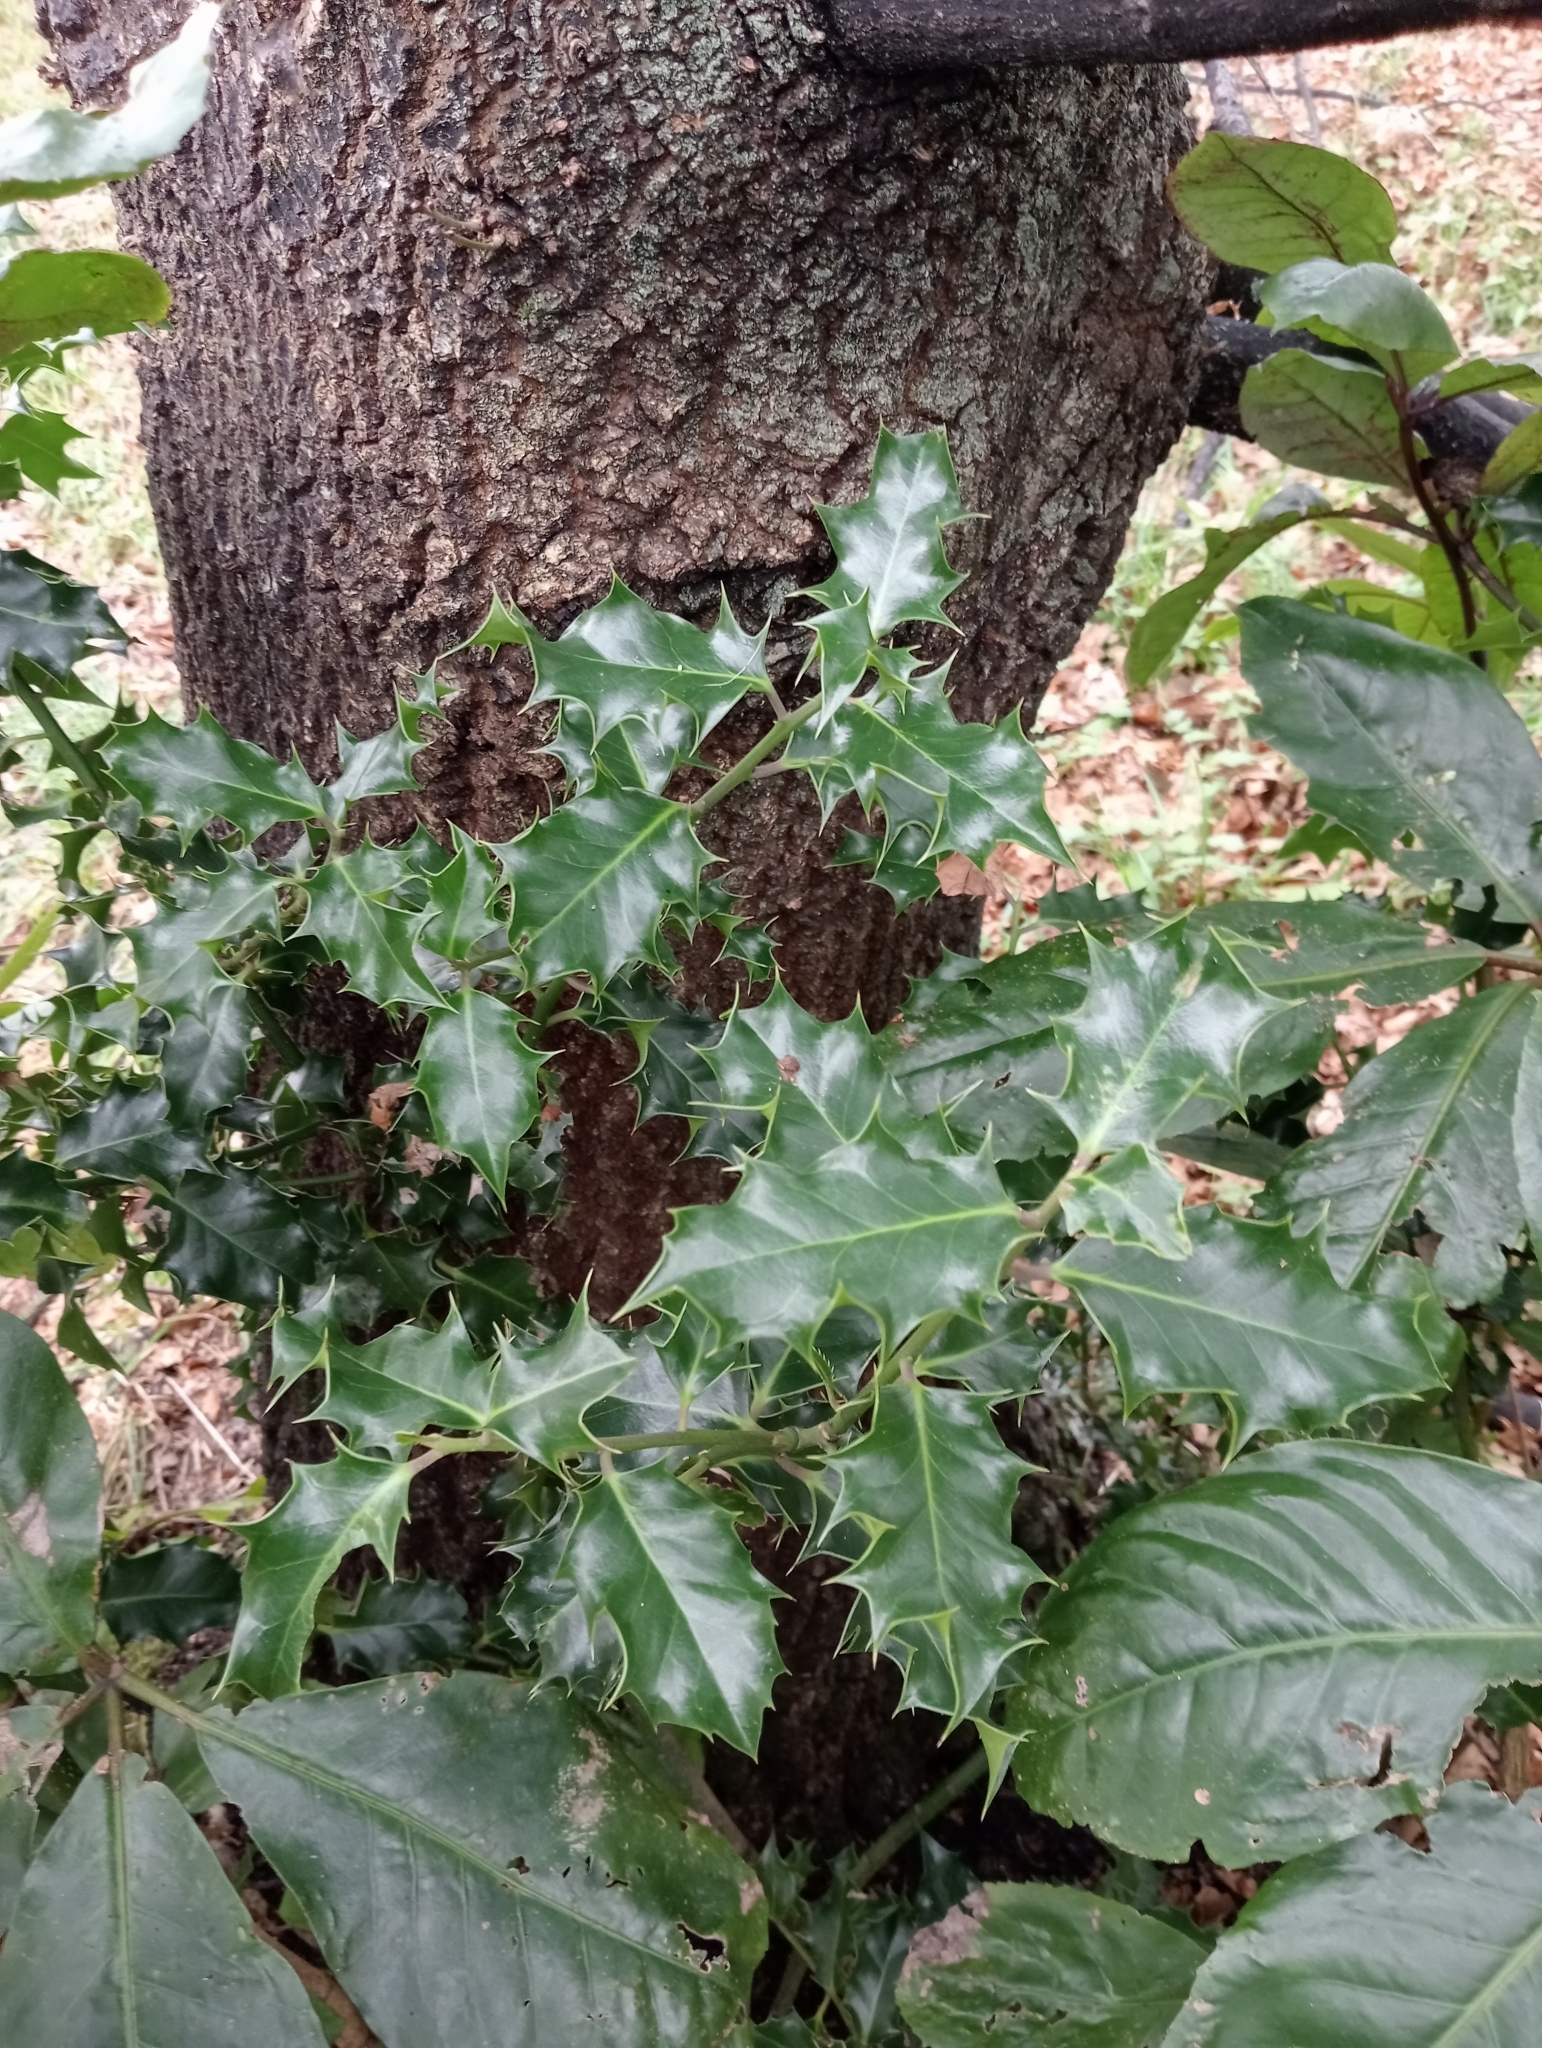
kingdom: Plantae
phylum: Tracheophyta
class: Magnoliopsida
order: Aquifoliales
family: Aquifoliaceae
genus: Ilex
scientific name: Ilex aquifolium
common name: English holly
